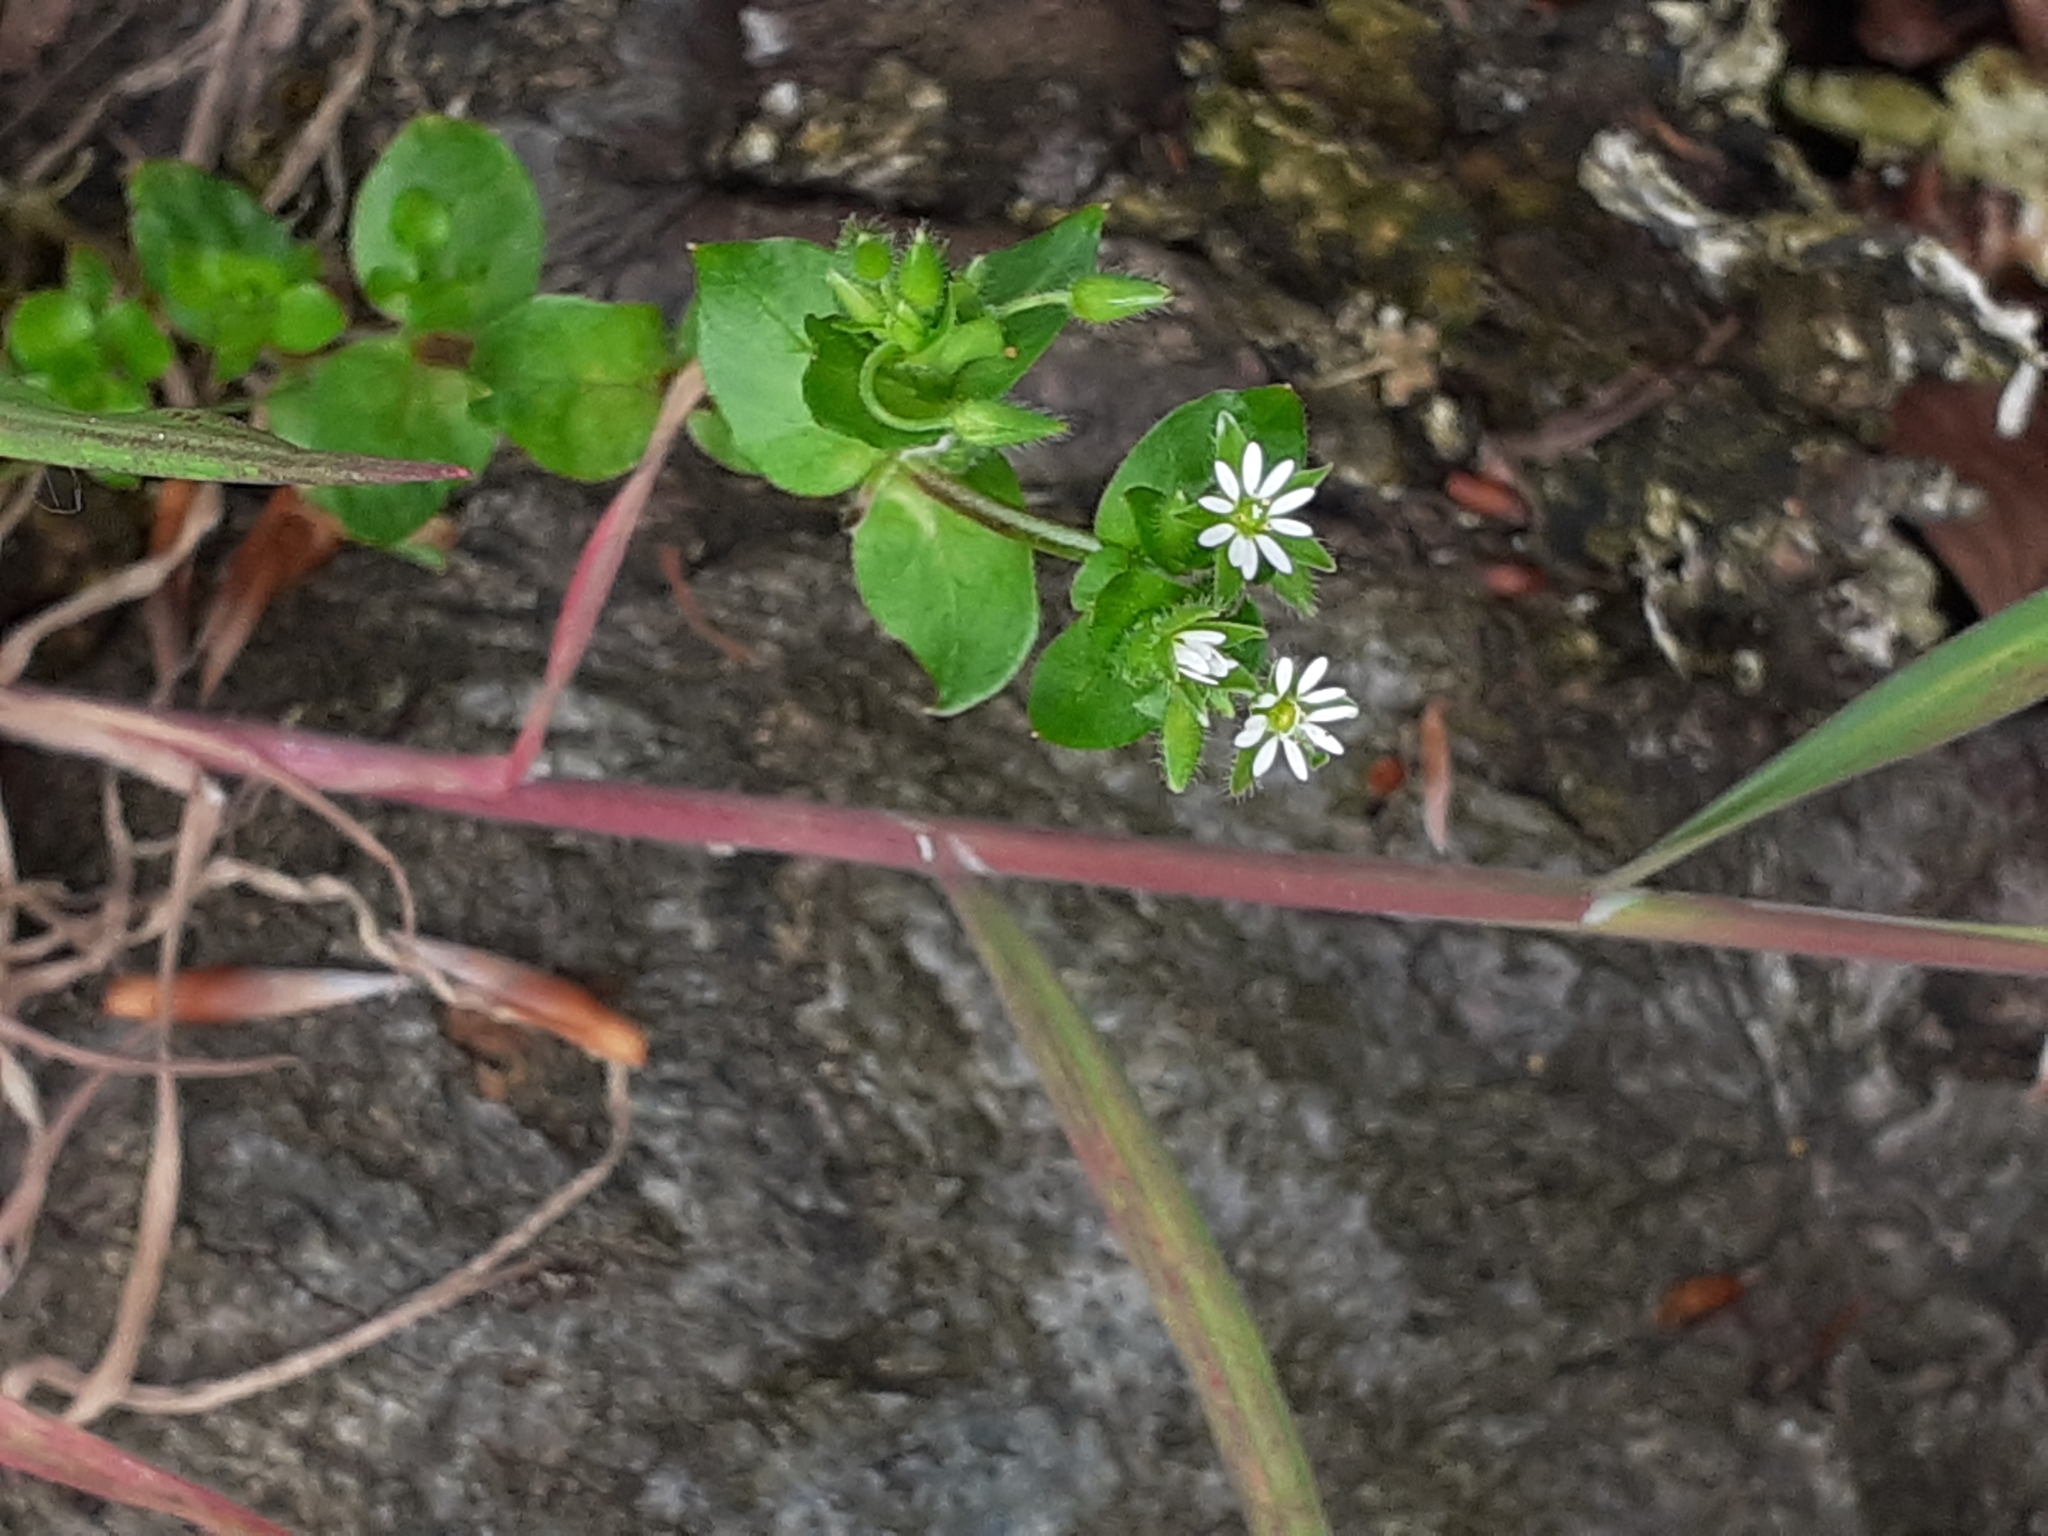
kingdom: Plantae
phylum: Tracheophyta
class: Magnoliopsida
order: Caryophyllales
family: Caryophyllaceae
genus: Stellaria
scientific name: Stellaria media
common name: Common chickweed
